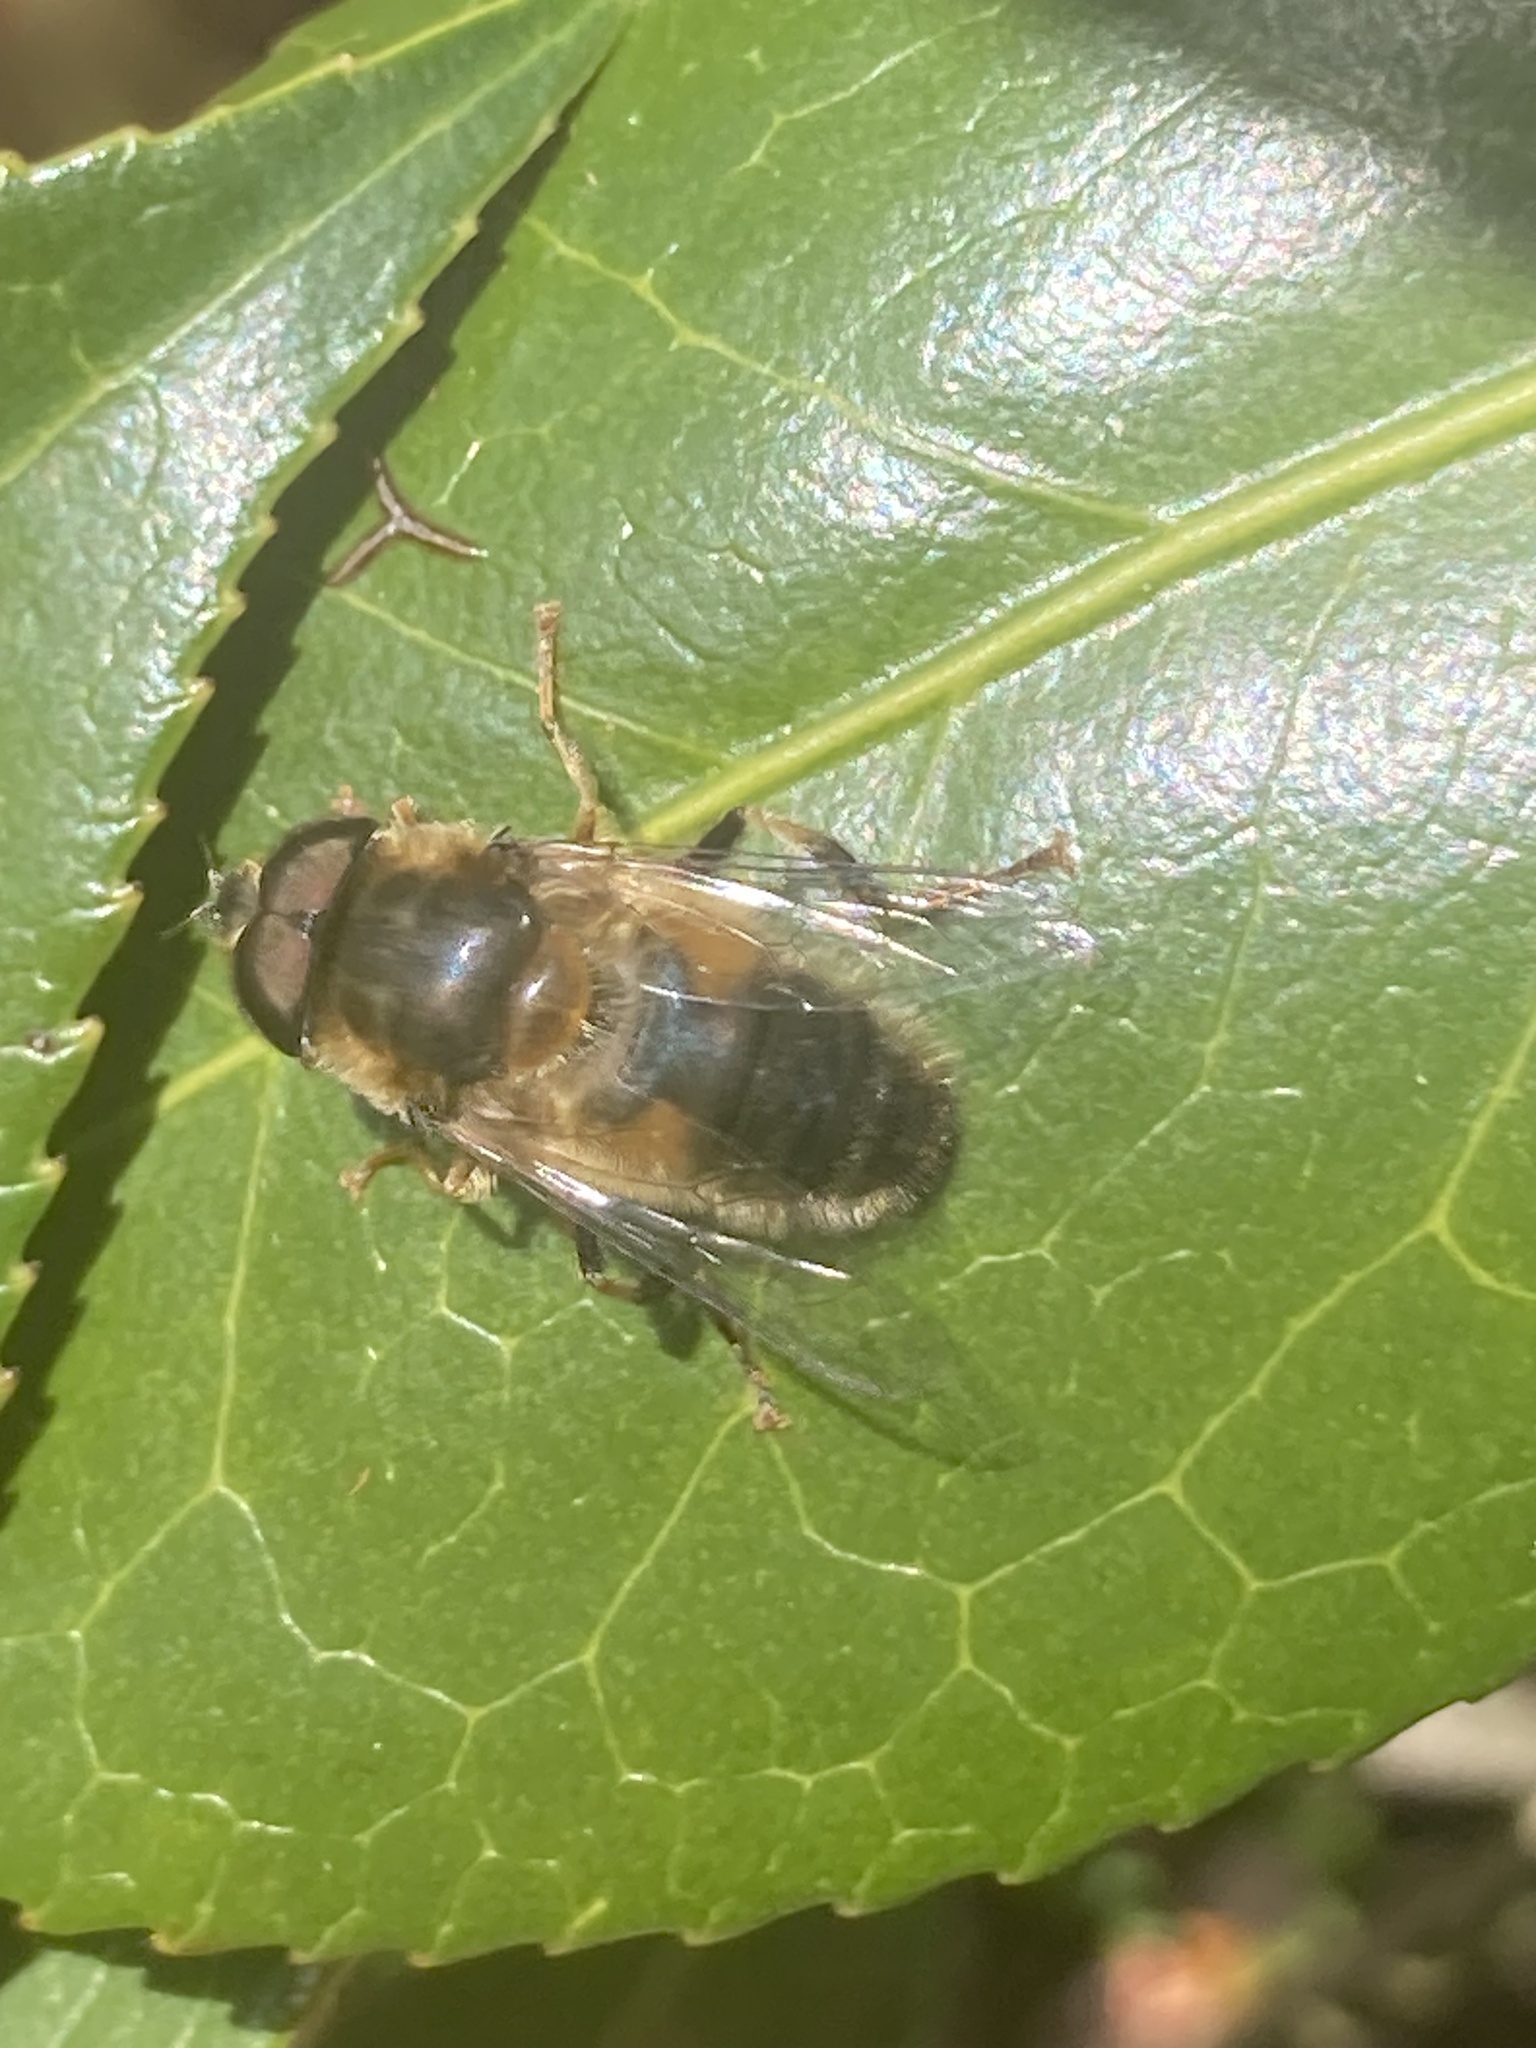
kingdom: Animalia
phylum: Arthropoda
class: Insecta
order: Diptera
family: Syrphidae
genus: Eristalis
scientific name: Eristalis pertinax
